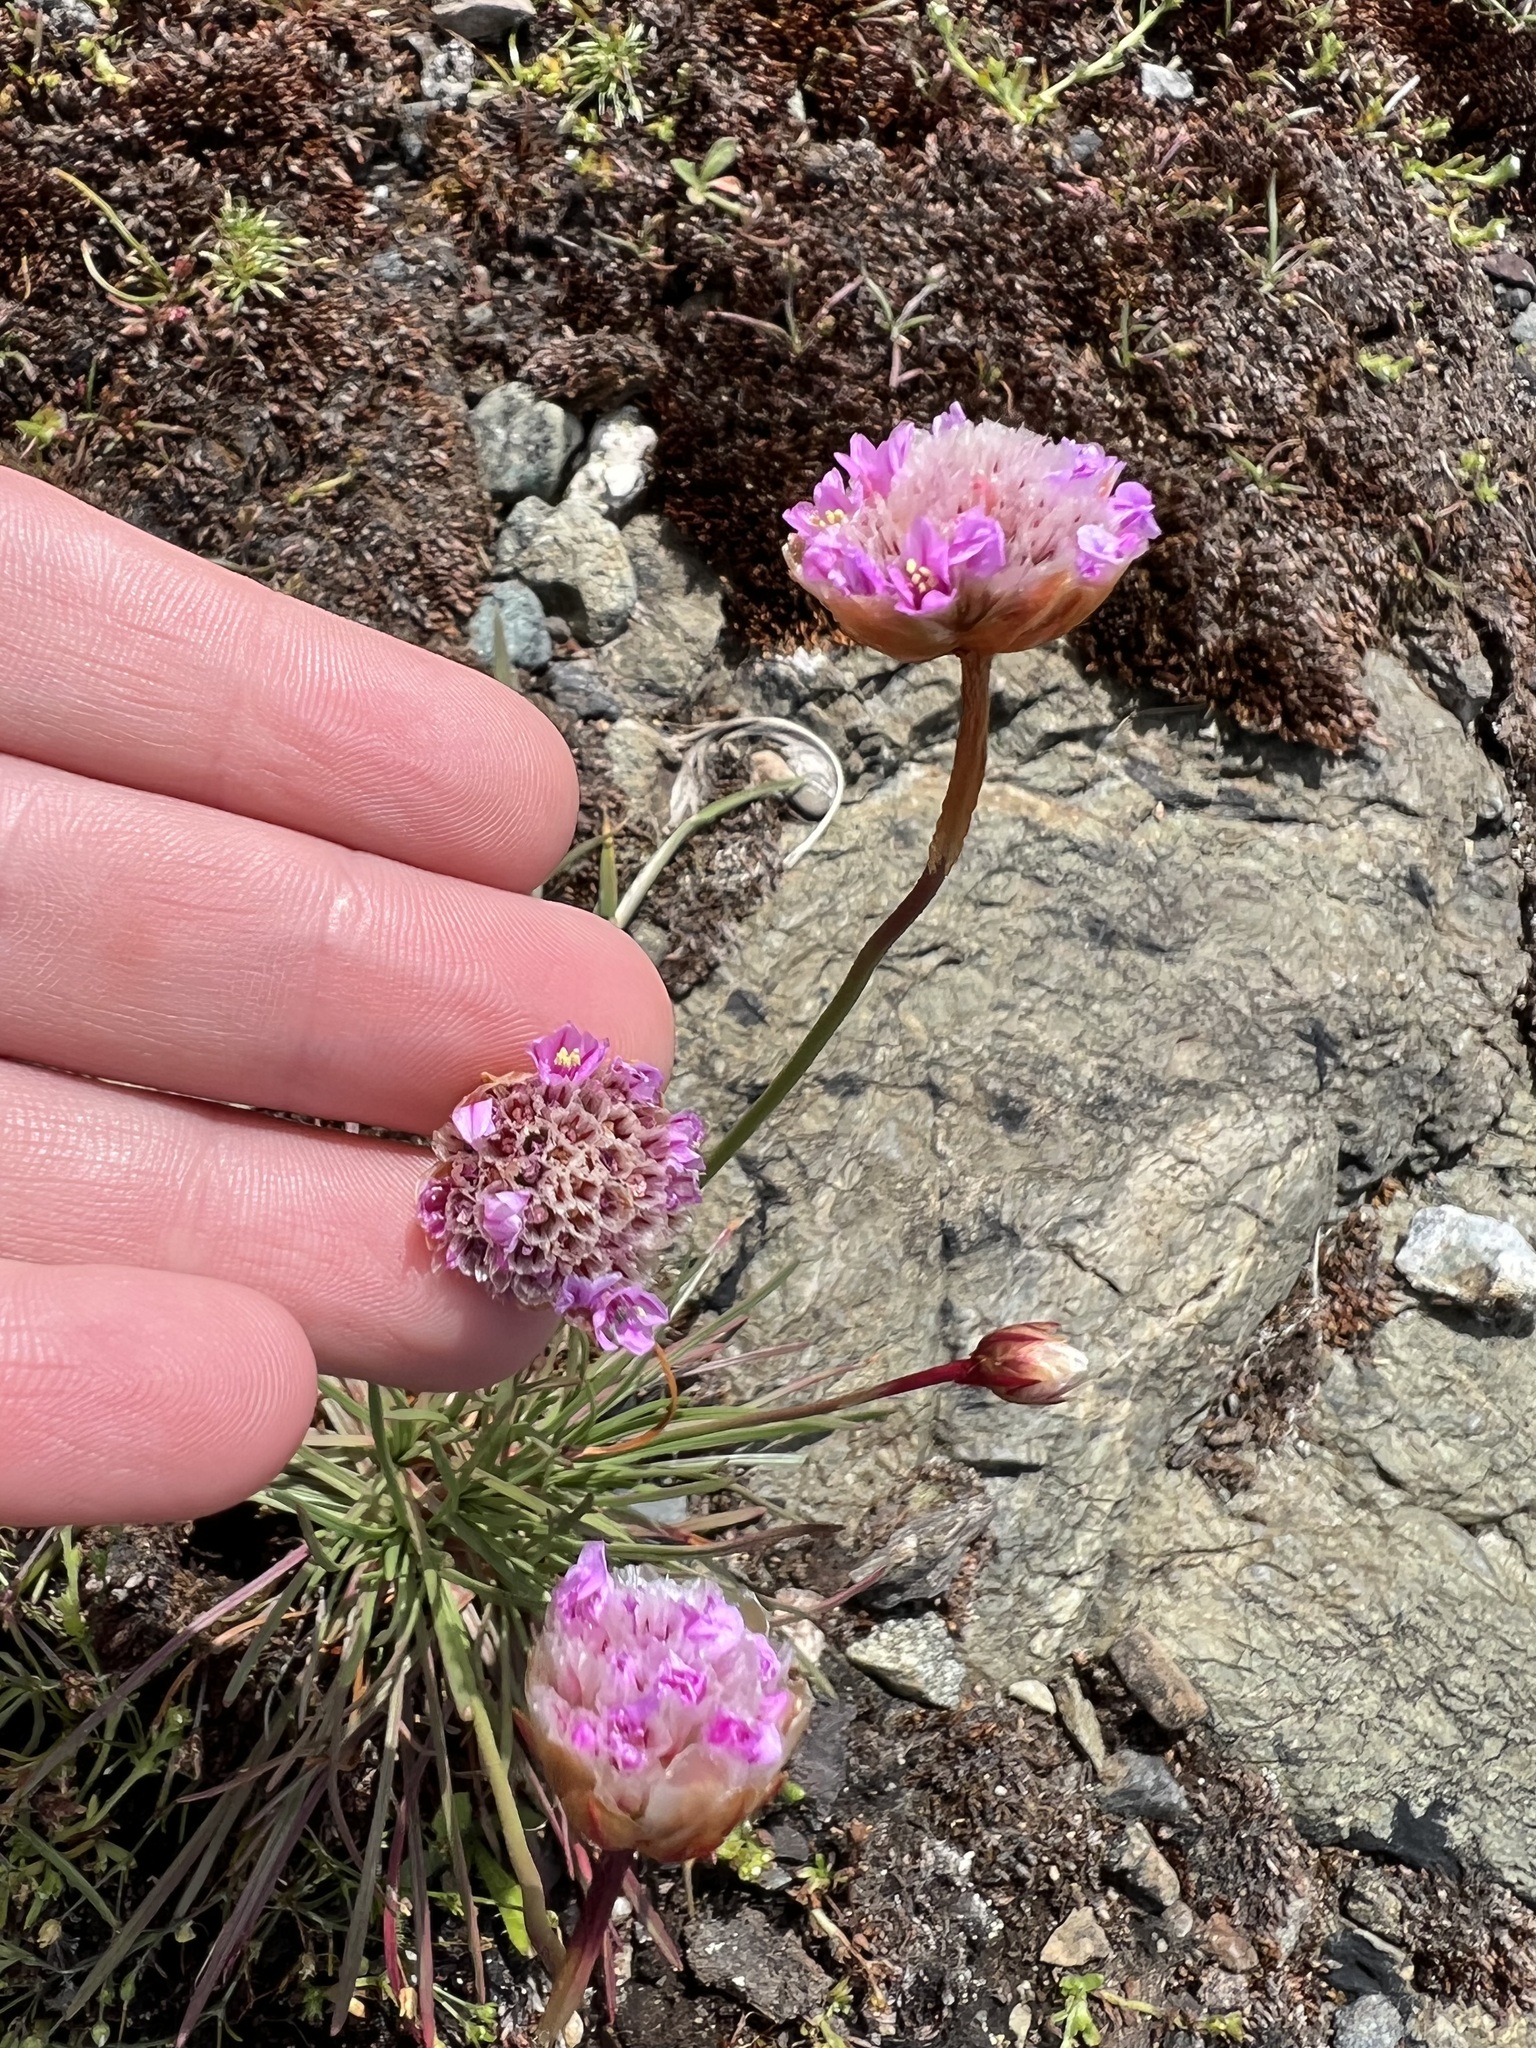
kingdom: Plantae
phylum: Tracheophyta
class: Magnoliopsida
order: Caryophyllales
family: Plumbaginaceae
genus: Armeria
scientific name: Armeria maritima
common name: Thrift
